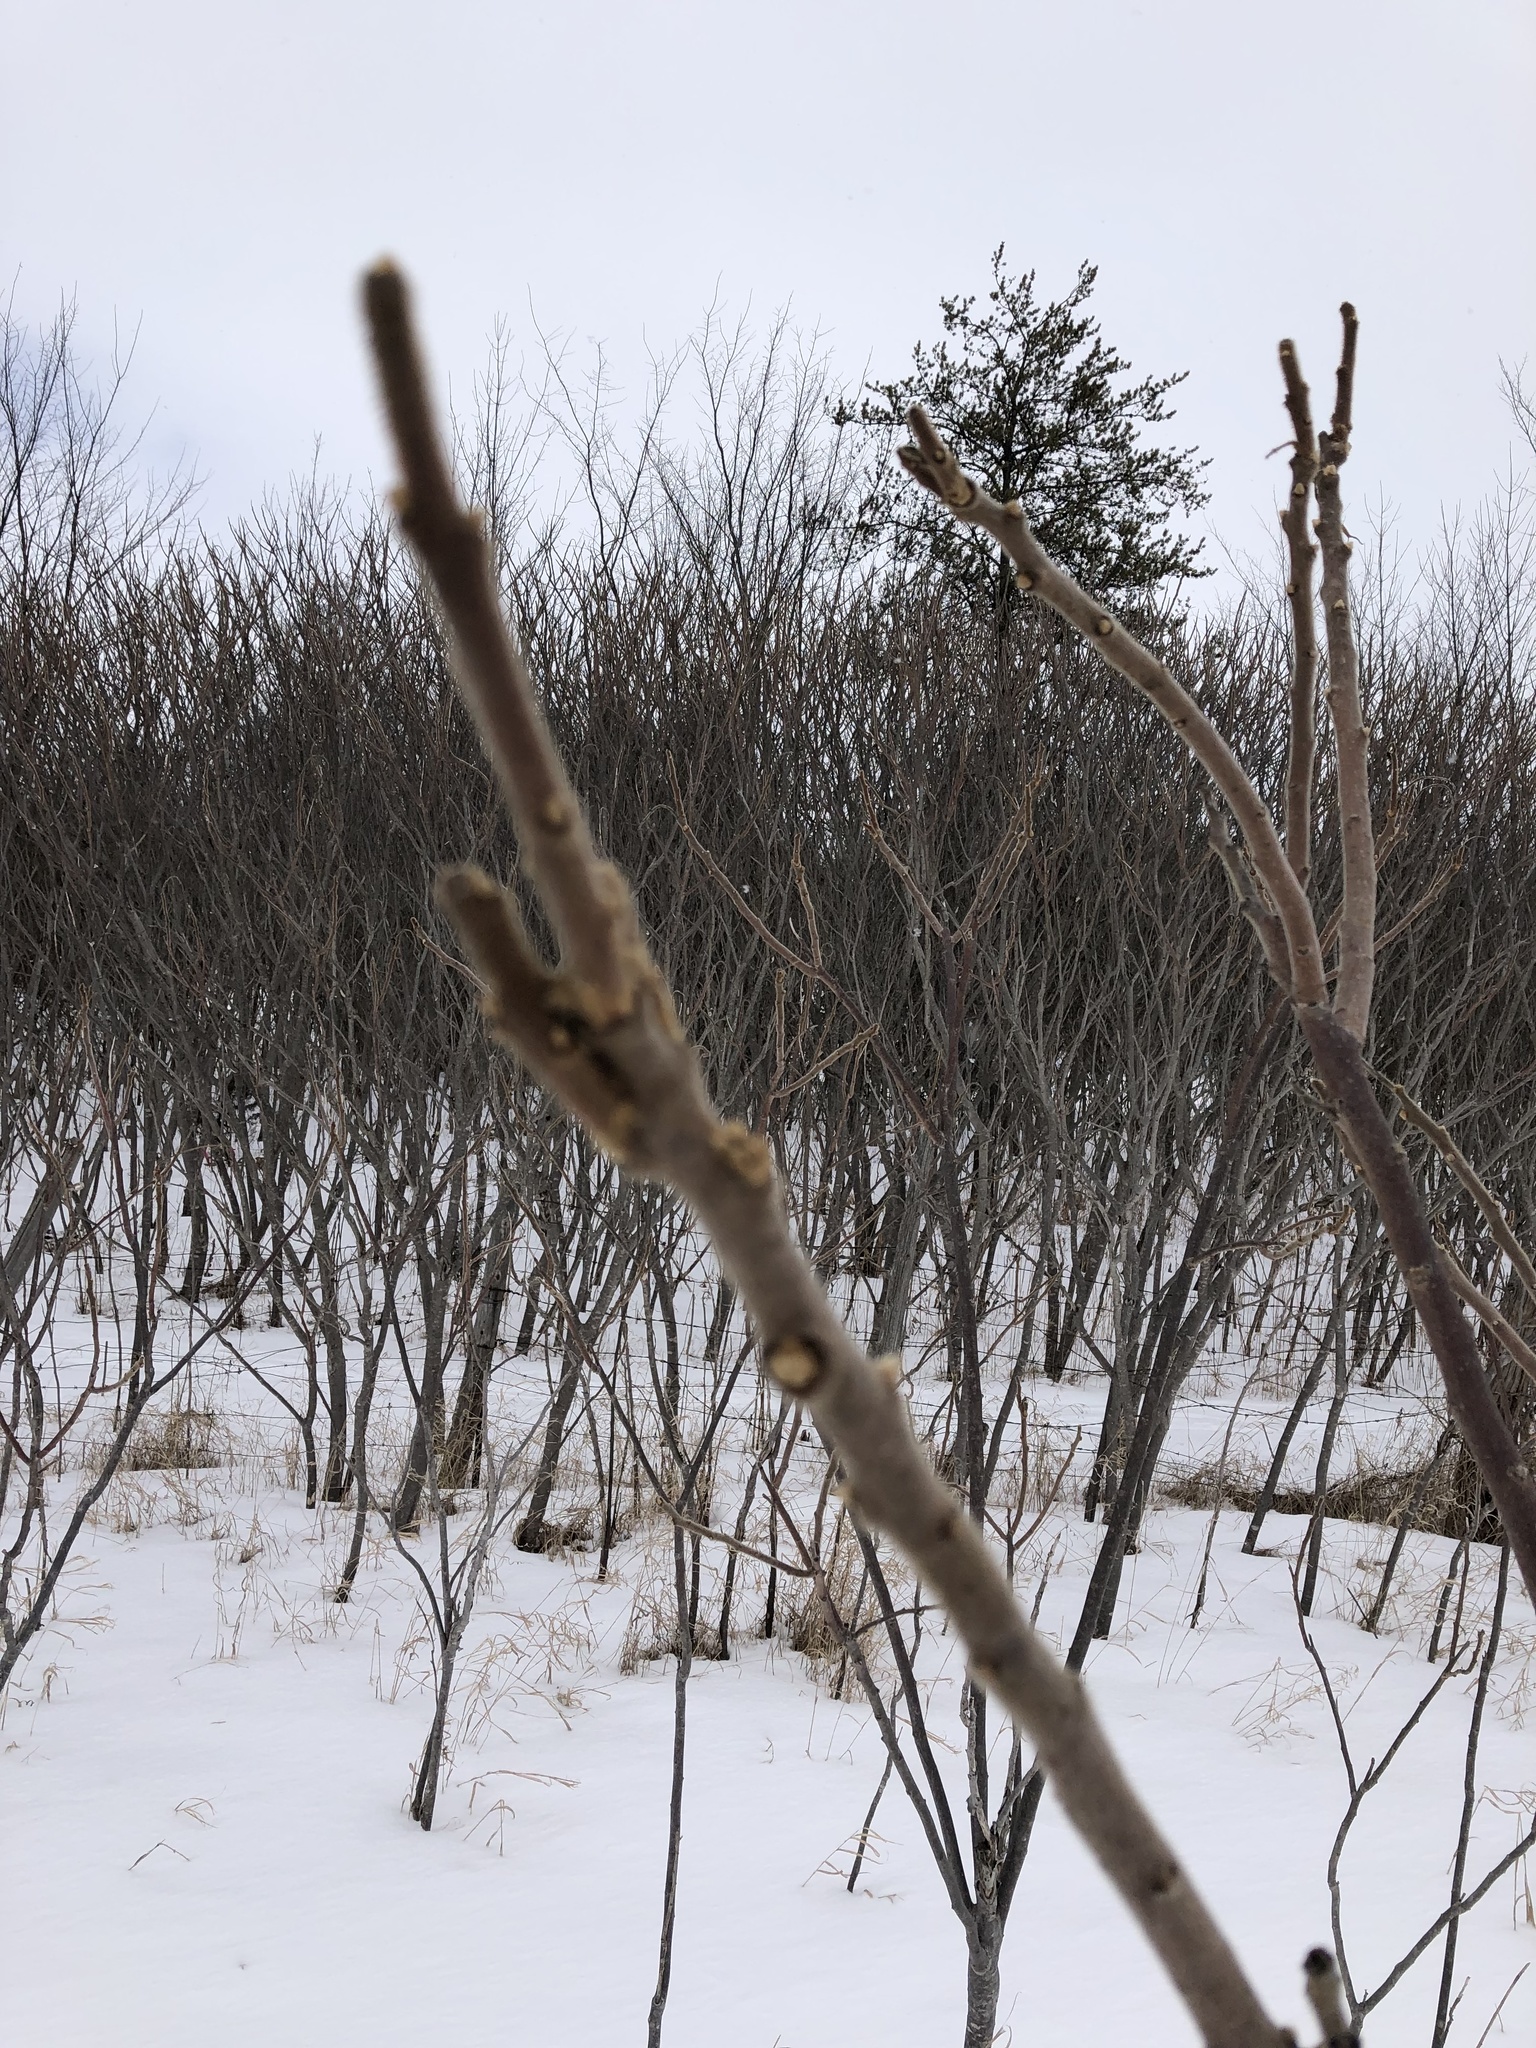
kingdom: Plantae
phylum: Tracheophyta
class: Magnoliopsida
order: Sapindales
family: Anacardiaceae
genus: Rhus
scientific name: Rhus typhina
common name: Staghorn sumac
